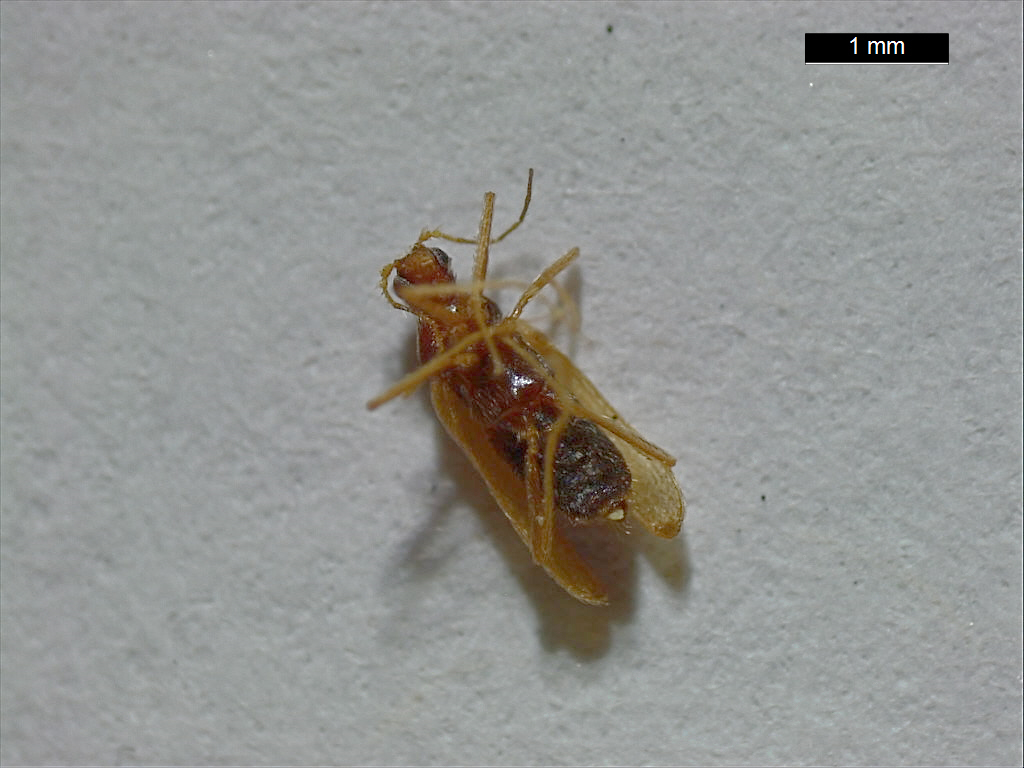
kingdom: Animalia
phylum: Arthropoda
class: Insecta
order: Coleoptera
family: Dermestidae
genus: Thylodrias
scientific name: Thylodrias contractus
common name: Odd beetle
